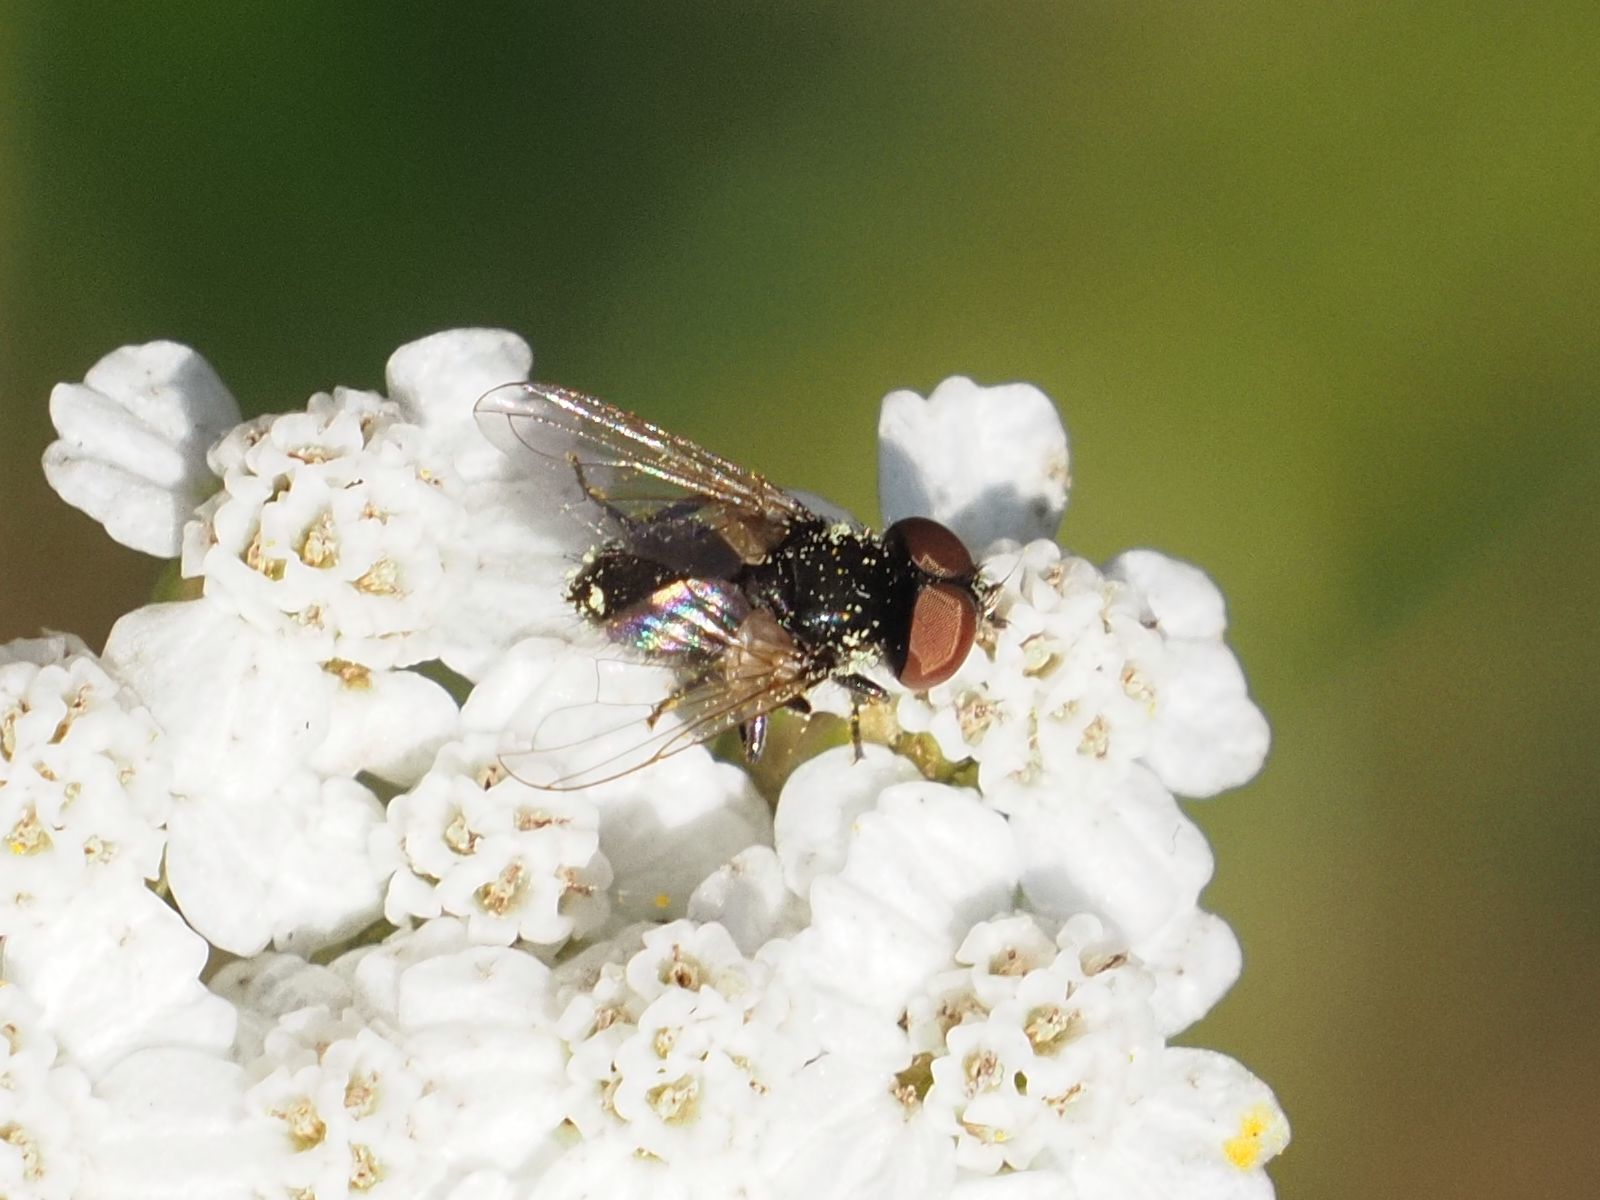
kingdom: Animalia
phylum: Arthropoda
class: Insecta
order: Diptera
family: Tachinidae
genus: Phasia
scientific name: Phasia barbifrons
